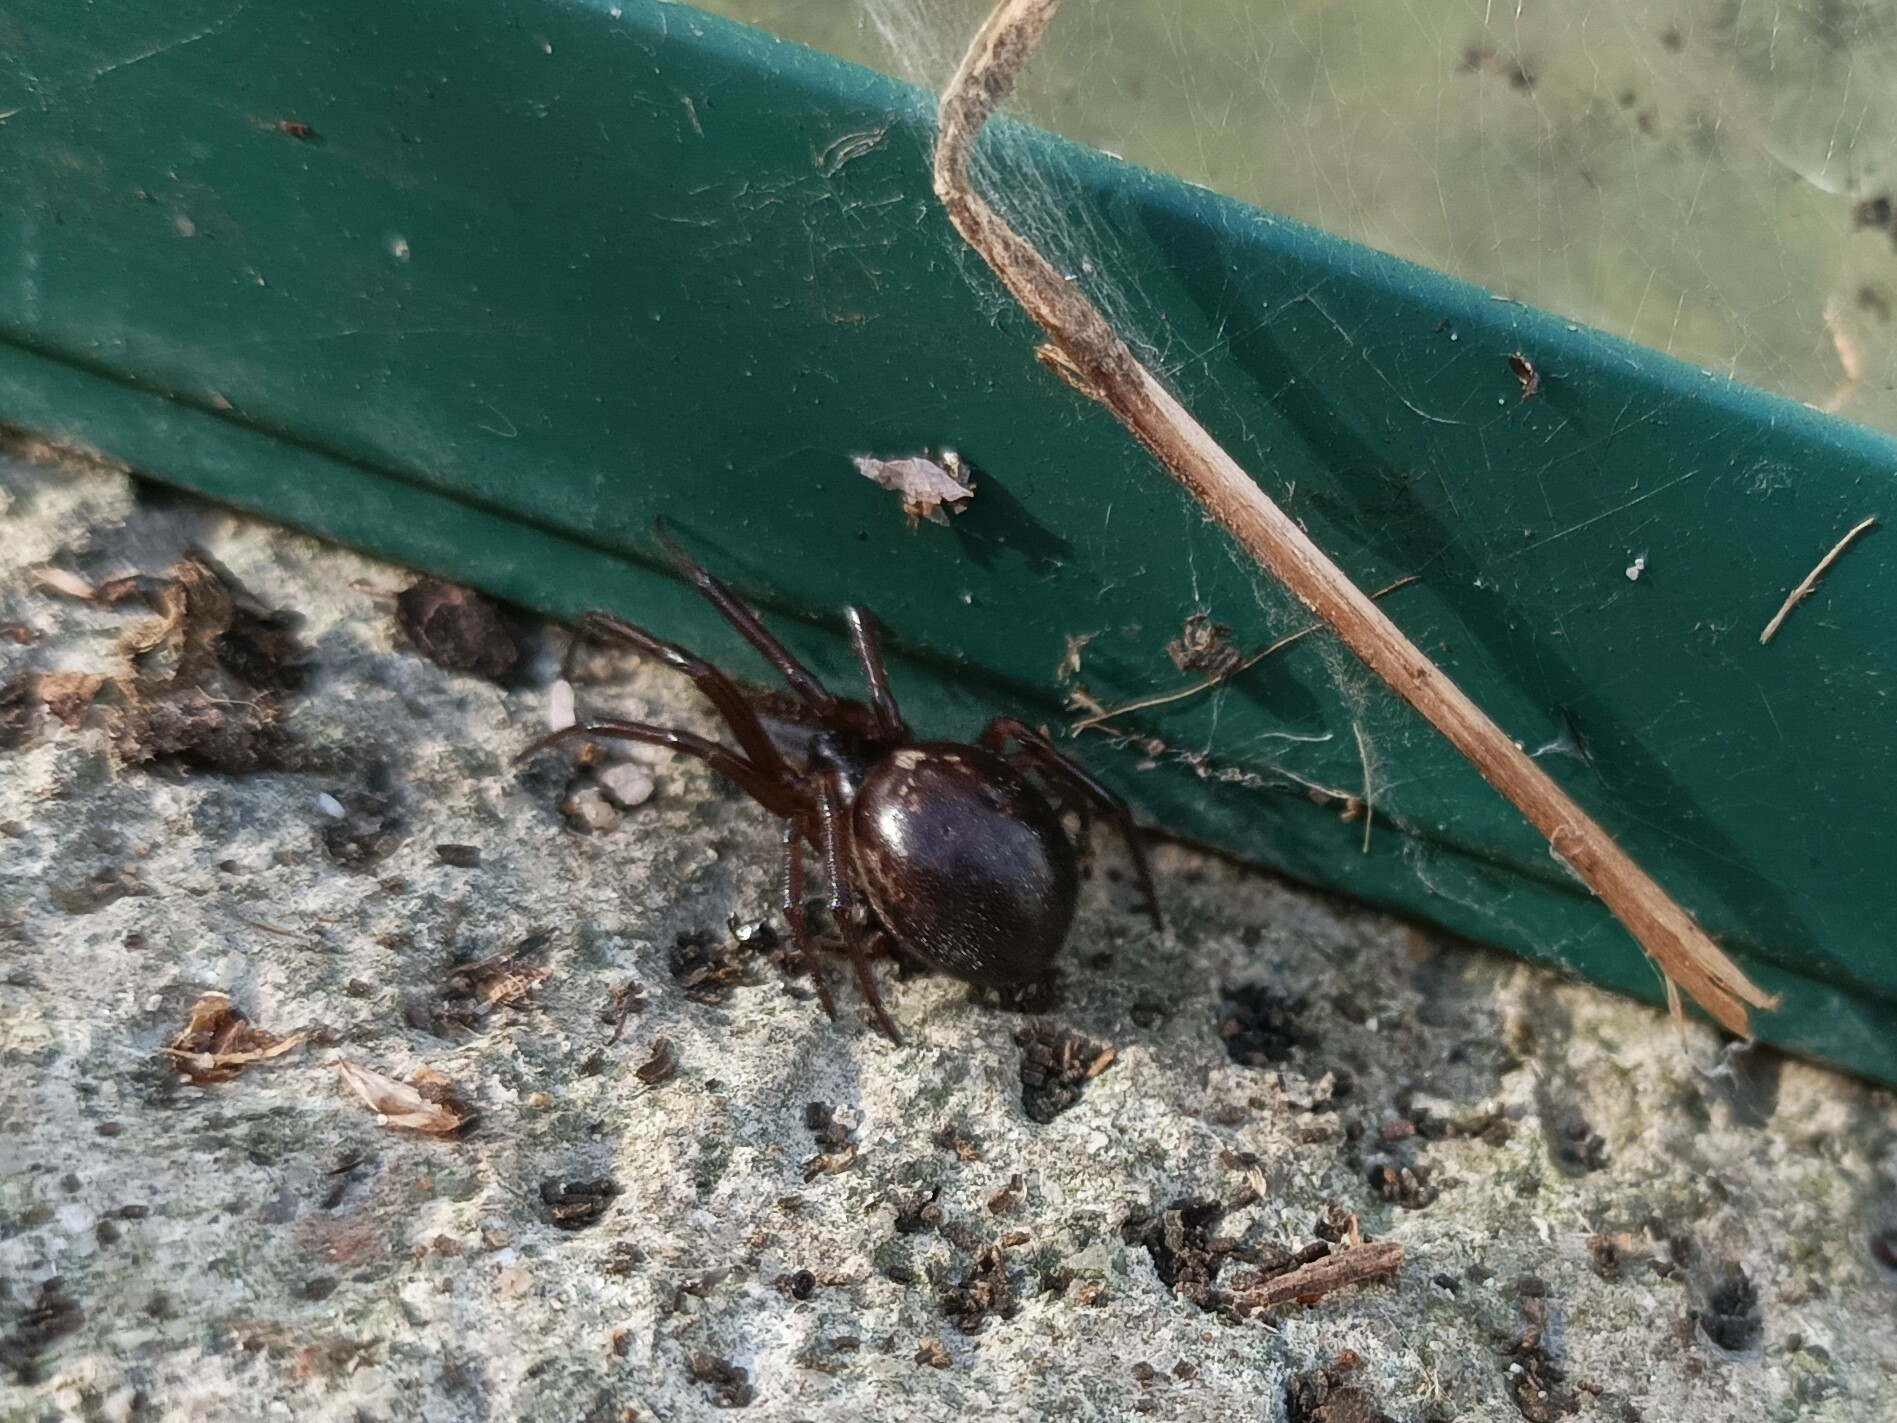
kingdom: Animalia
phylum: Arthropoda
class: Arachnida
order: Araneae
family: Theridiidae
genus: Steatoda
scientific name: Steatoda nobilis
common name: Cobweb weaver
